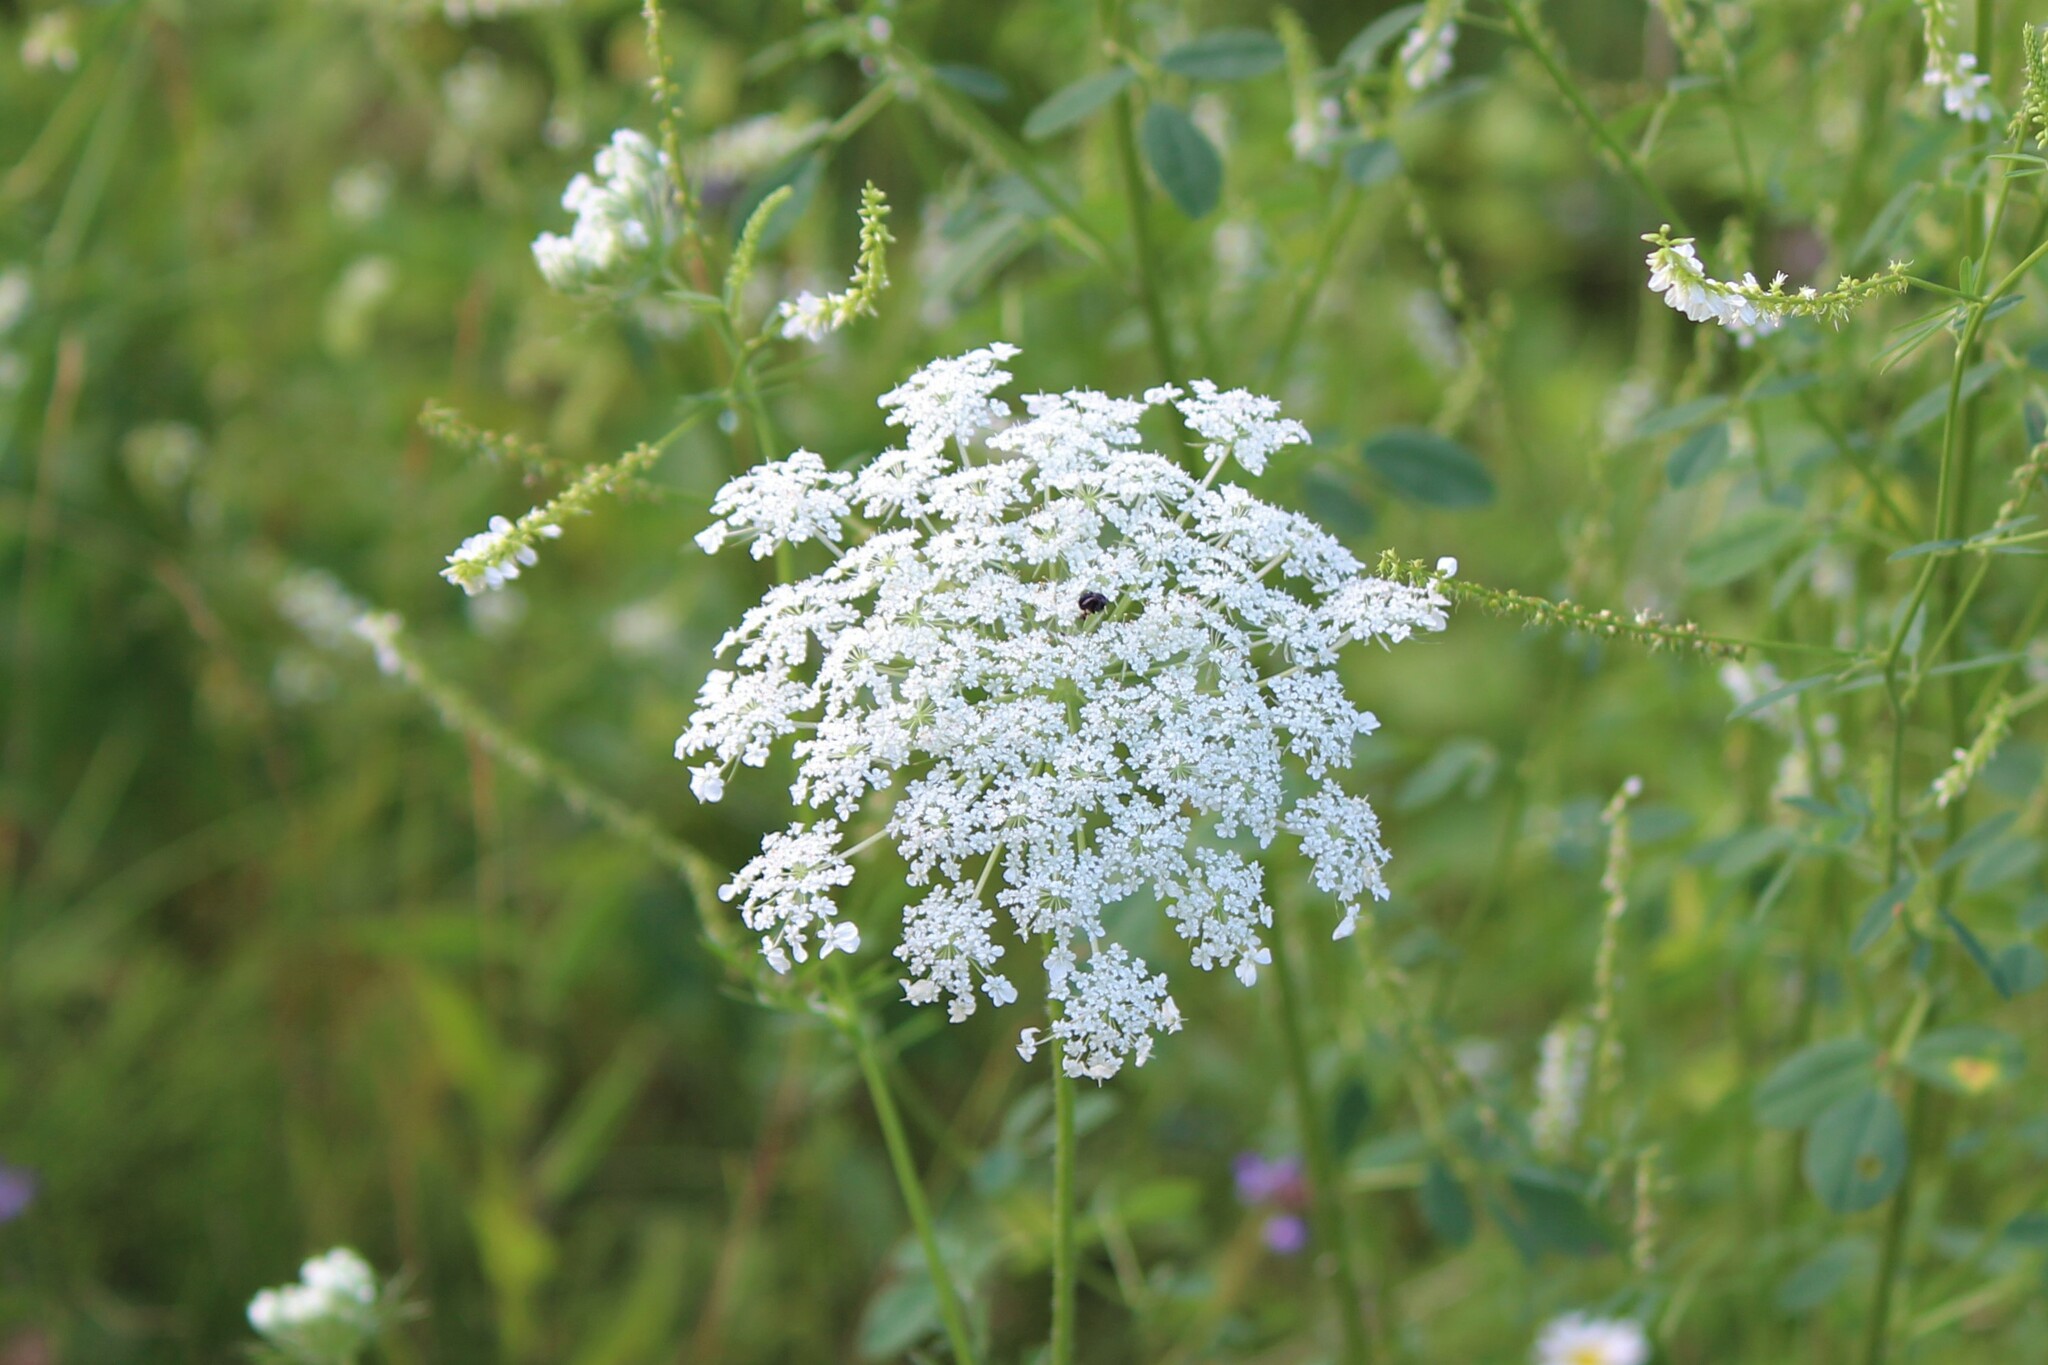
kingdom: Plantae
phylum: Tracheophyta
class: Magnoliopsida
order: Apiales
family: Apiaceae
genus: Daucus
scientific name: Daucus carota
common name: Wild carrot
